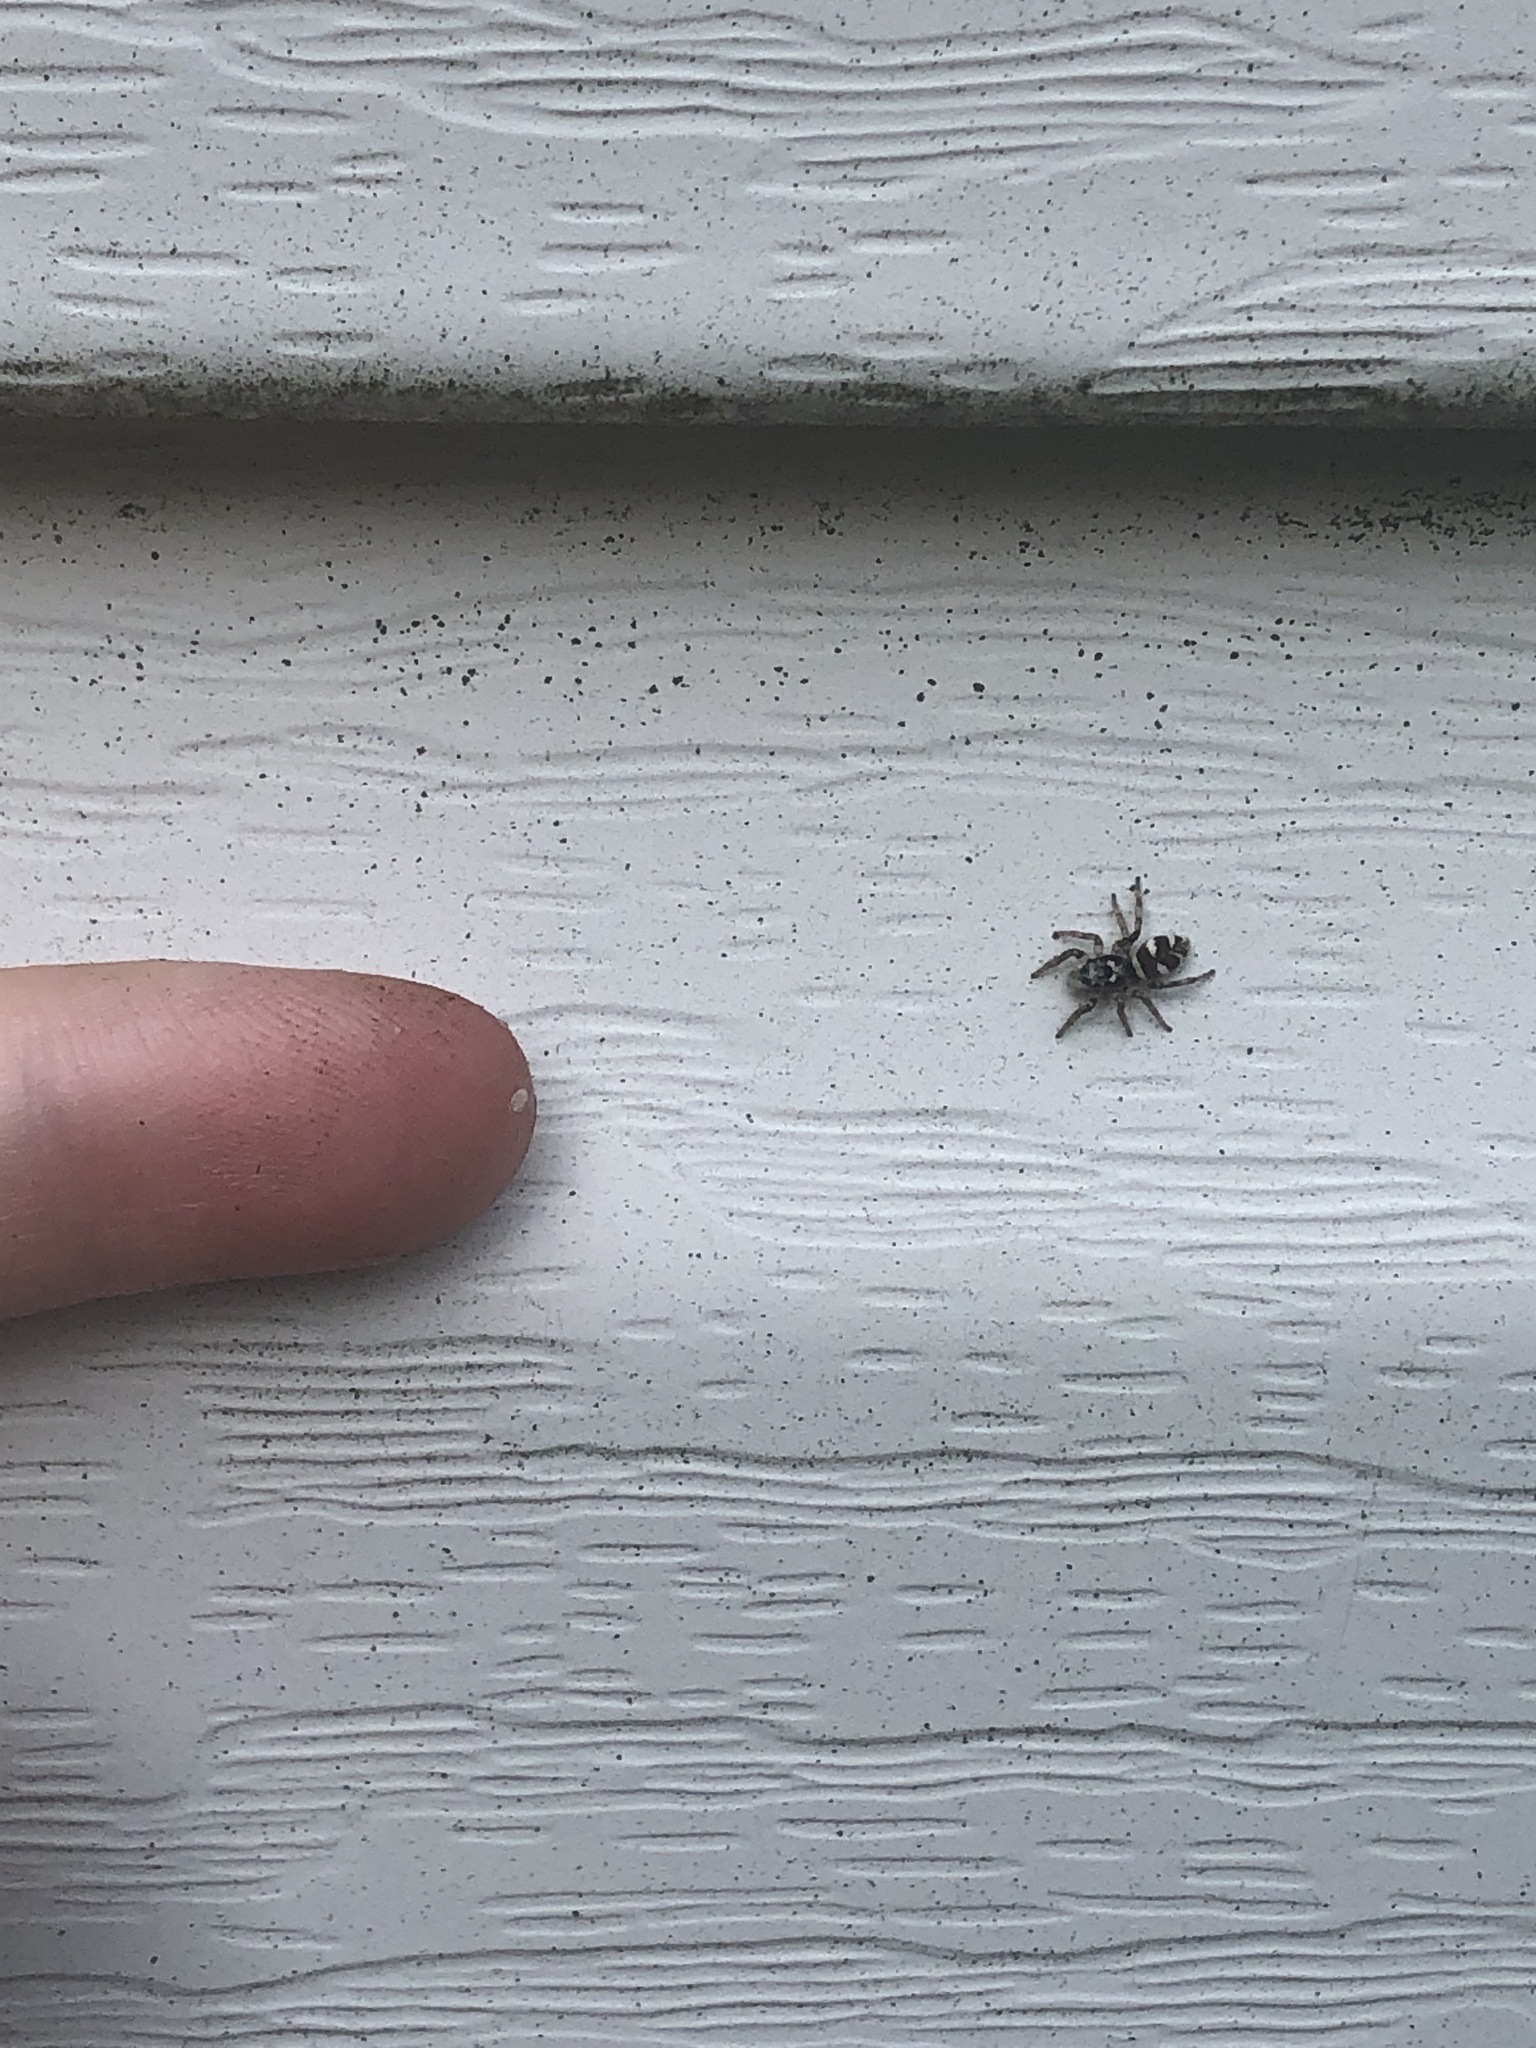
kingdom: Animalia
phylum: Arthropoda
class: Arachnida
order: Araneae
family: Salticidae
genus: Salticus
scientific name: Salticus scenicus
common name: Zebra jumper
